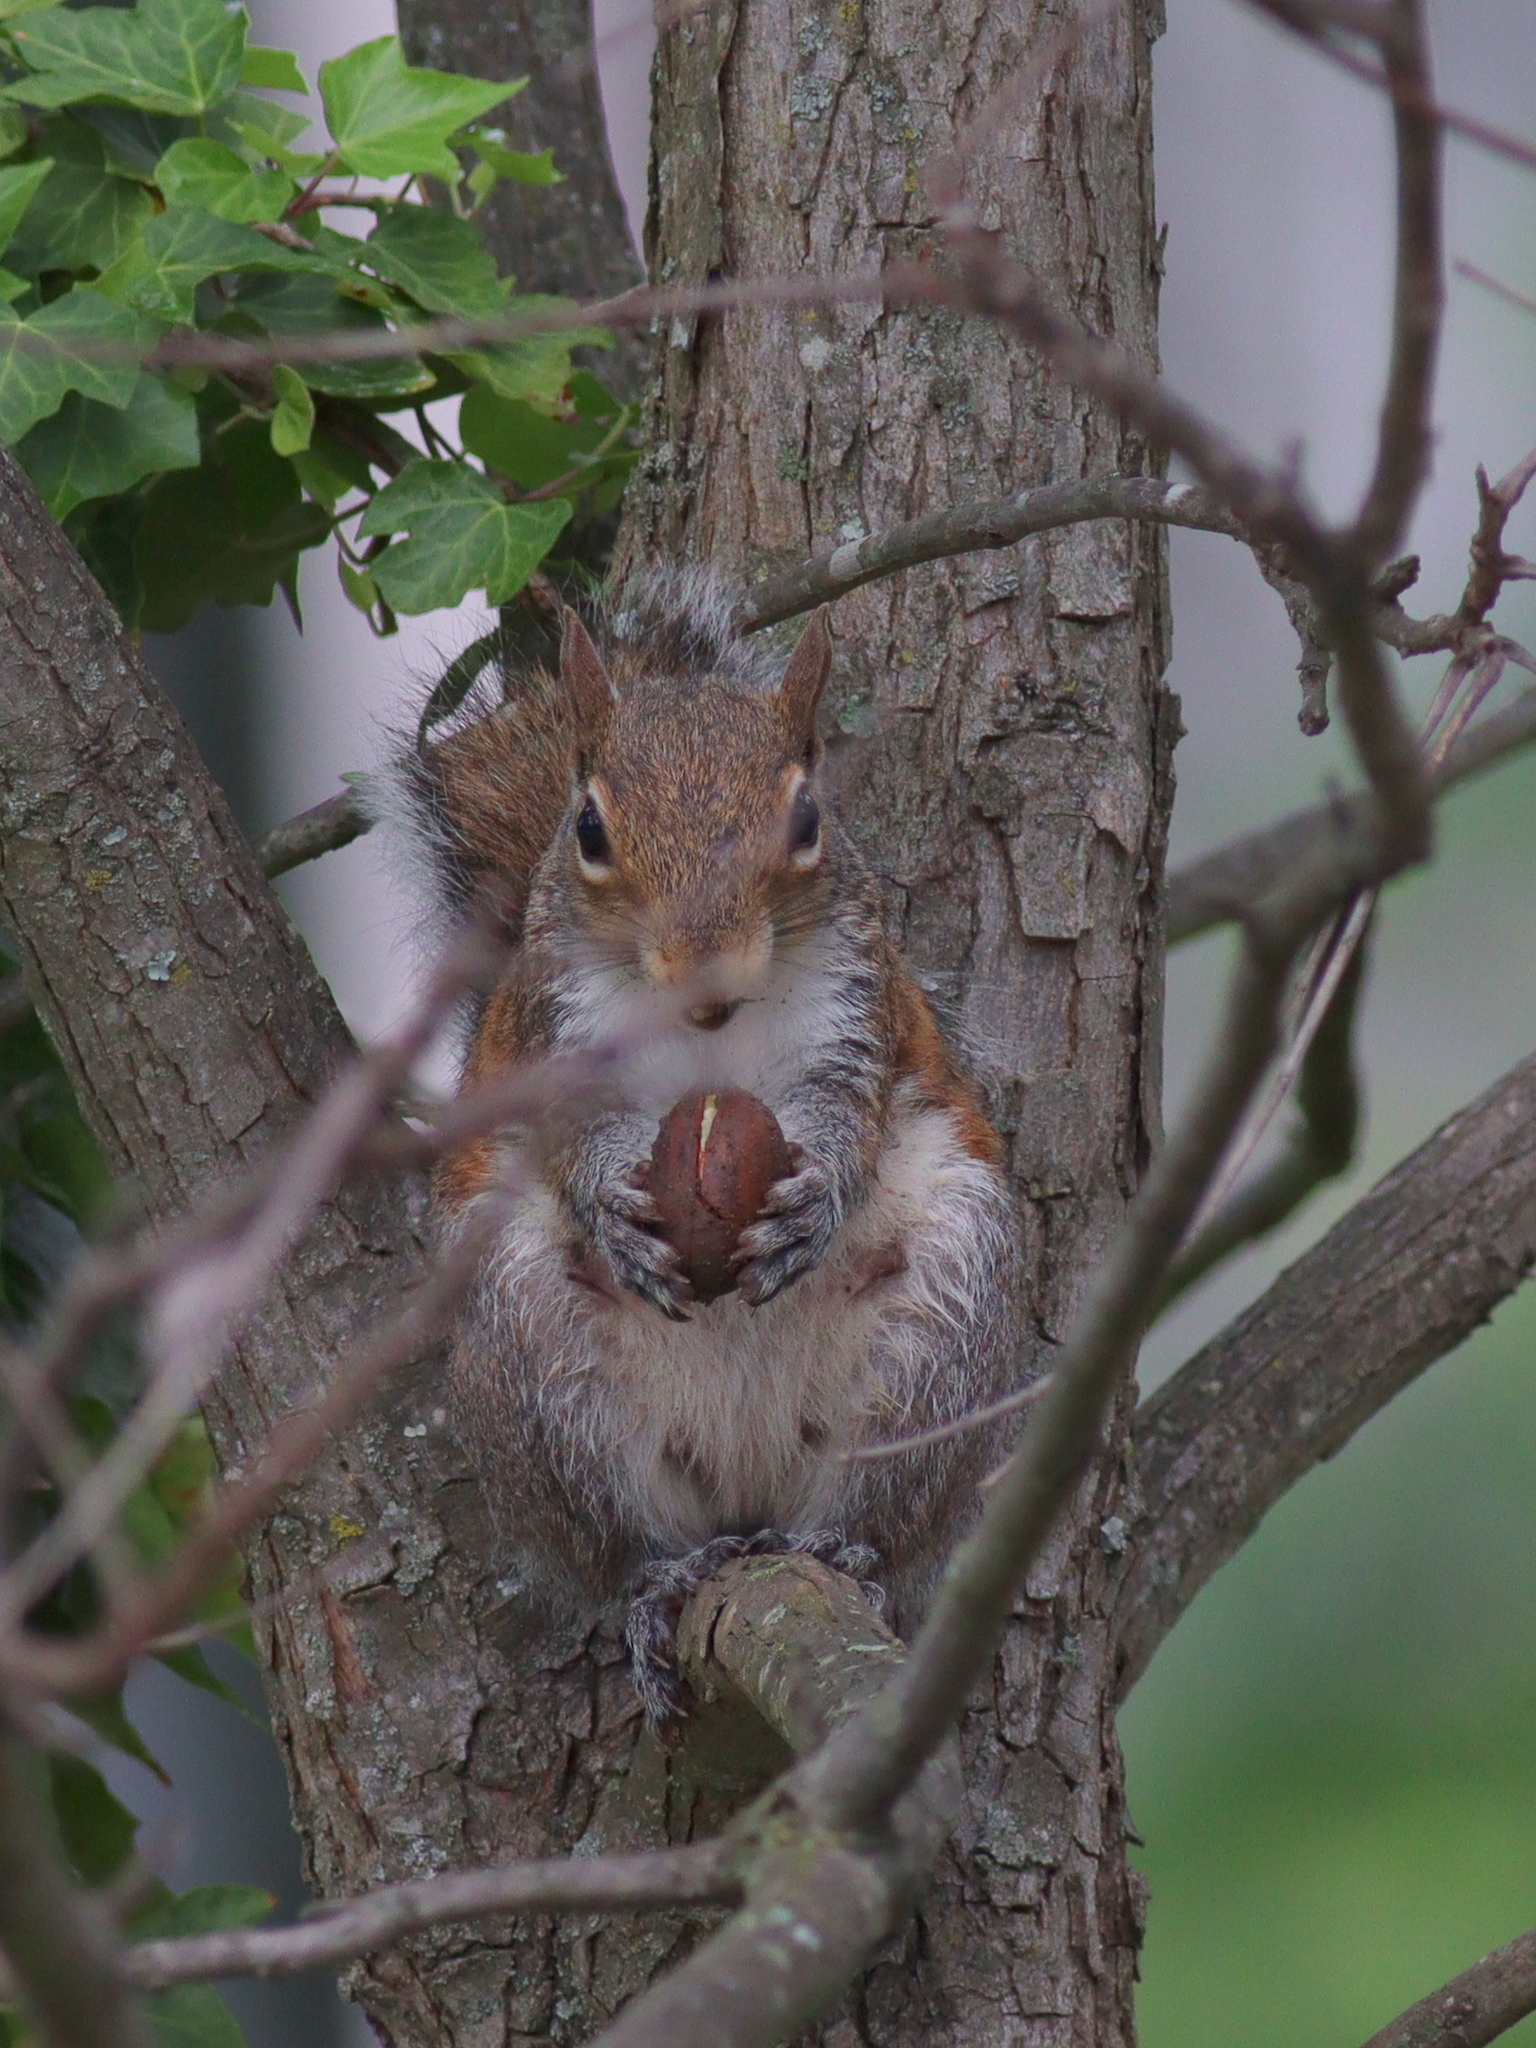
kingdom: Animalia
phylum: Chordata
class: Mammalia
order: Rodentia
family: Sciuridae
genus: Sciurus
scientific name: Sciurus carolinensis
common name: Eastern gray squirrel
